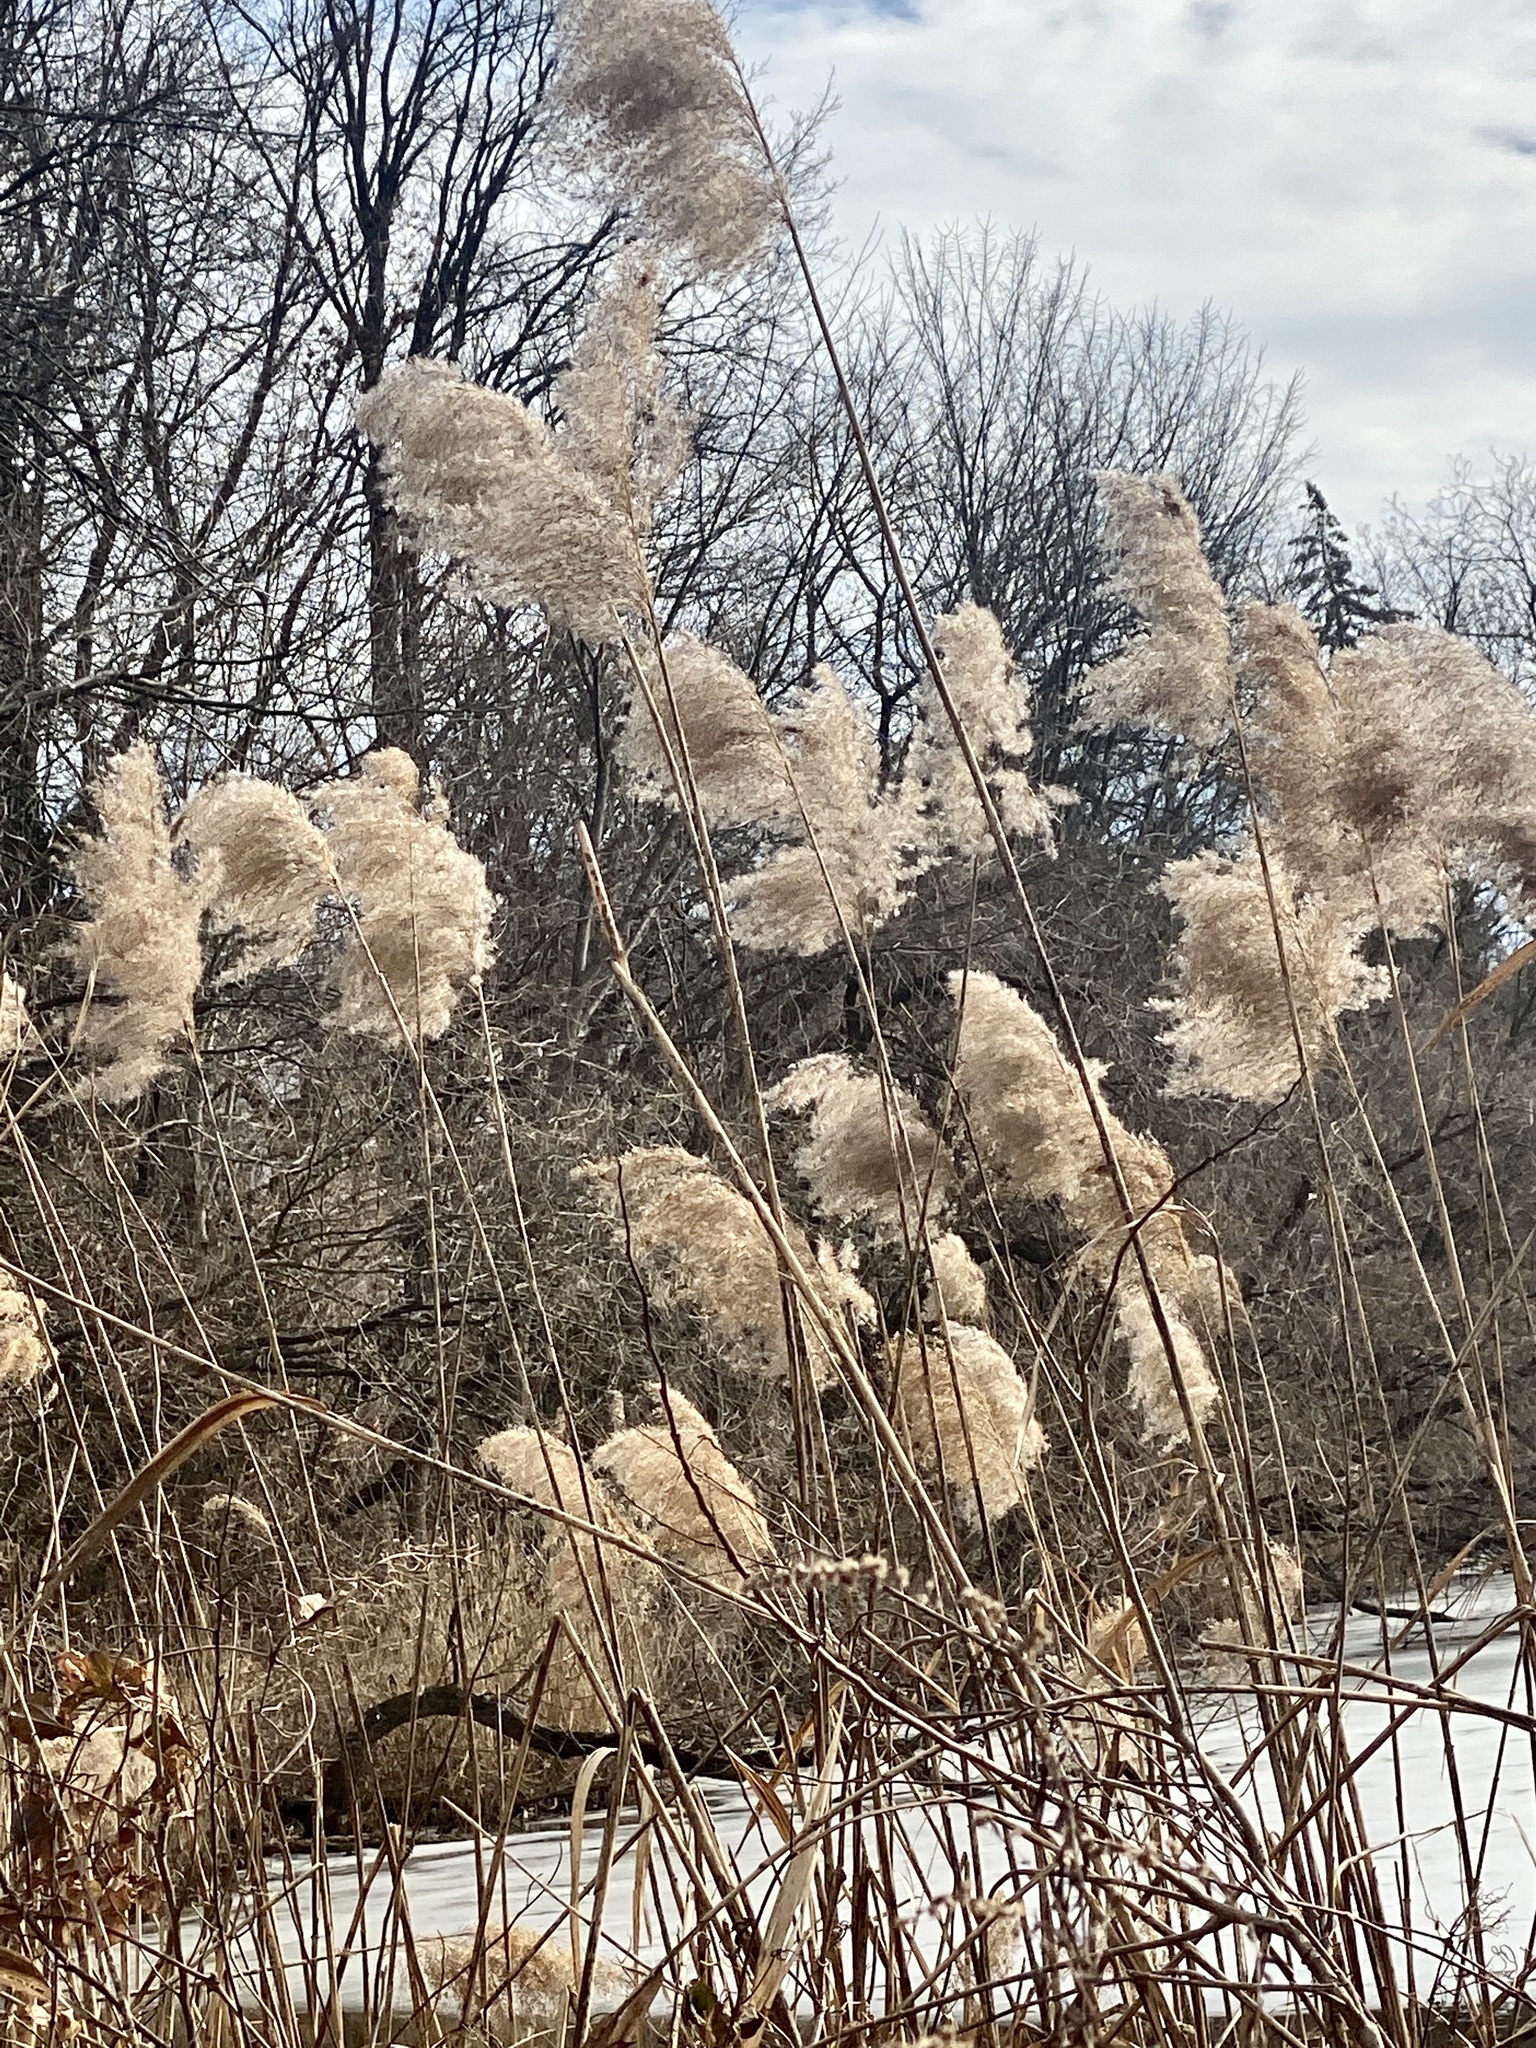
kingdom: Plantae
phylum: Tracheophyta
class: Liliopsida
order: Poales
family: Poaceae
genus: Phragmites
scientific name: Phragmites australis
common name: Common reed
